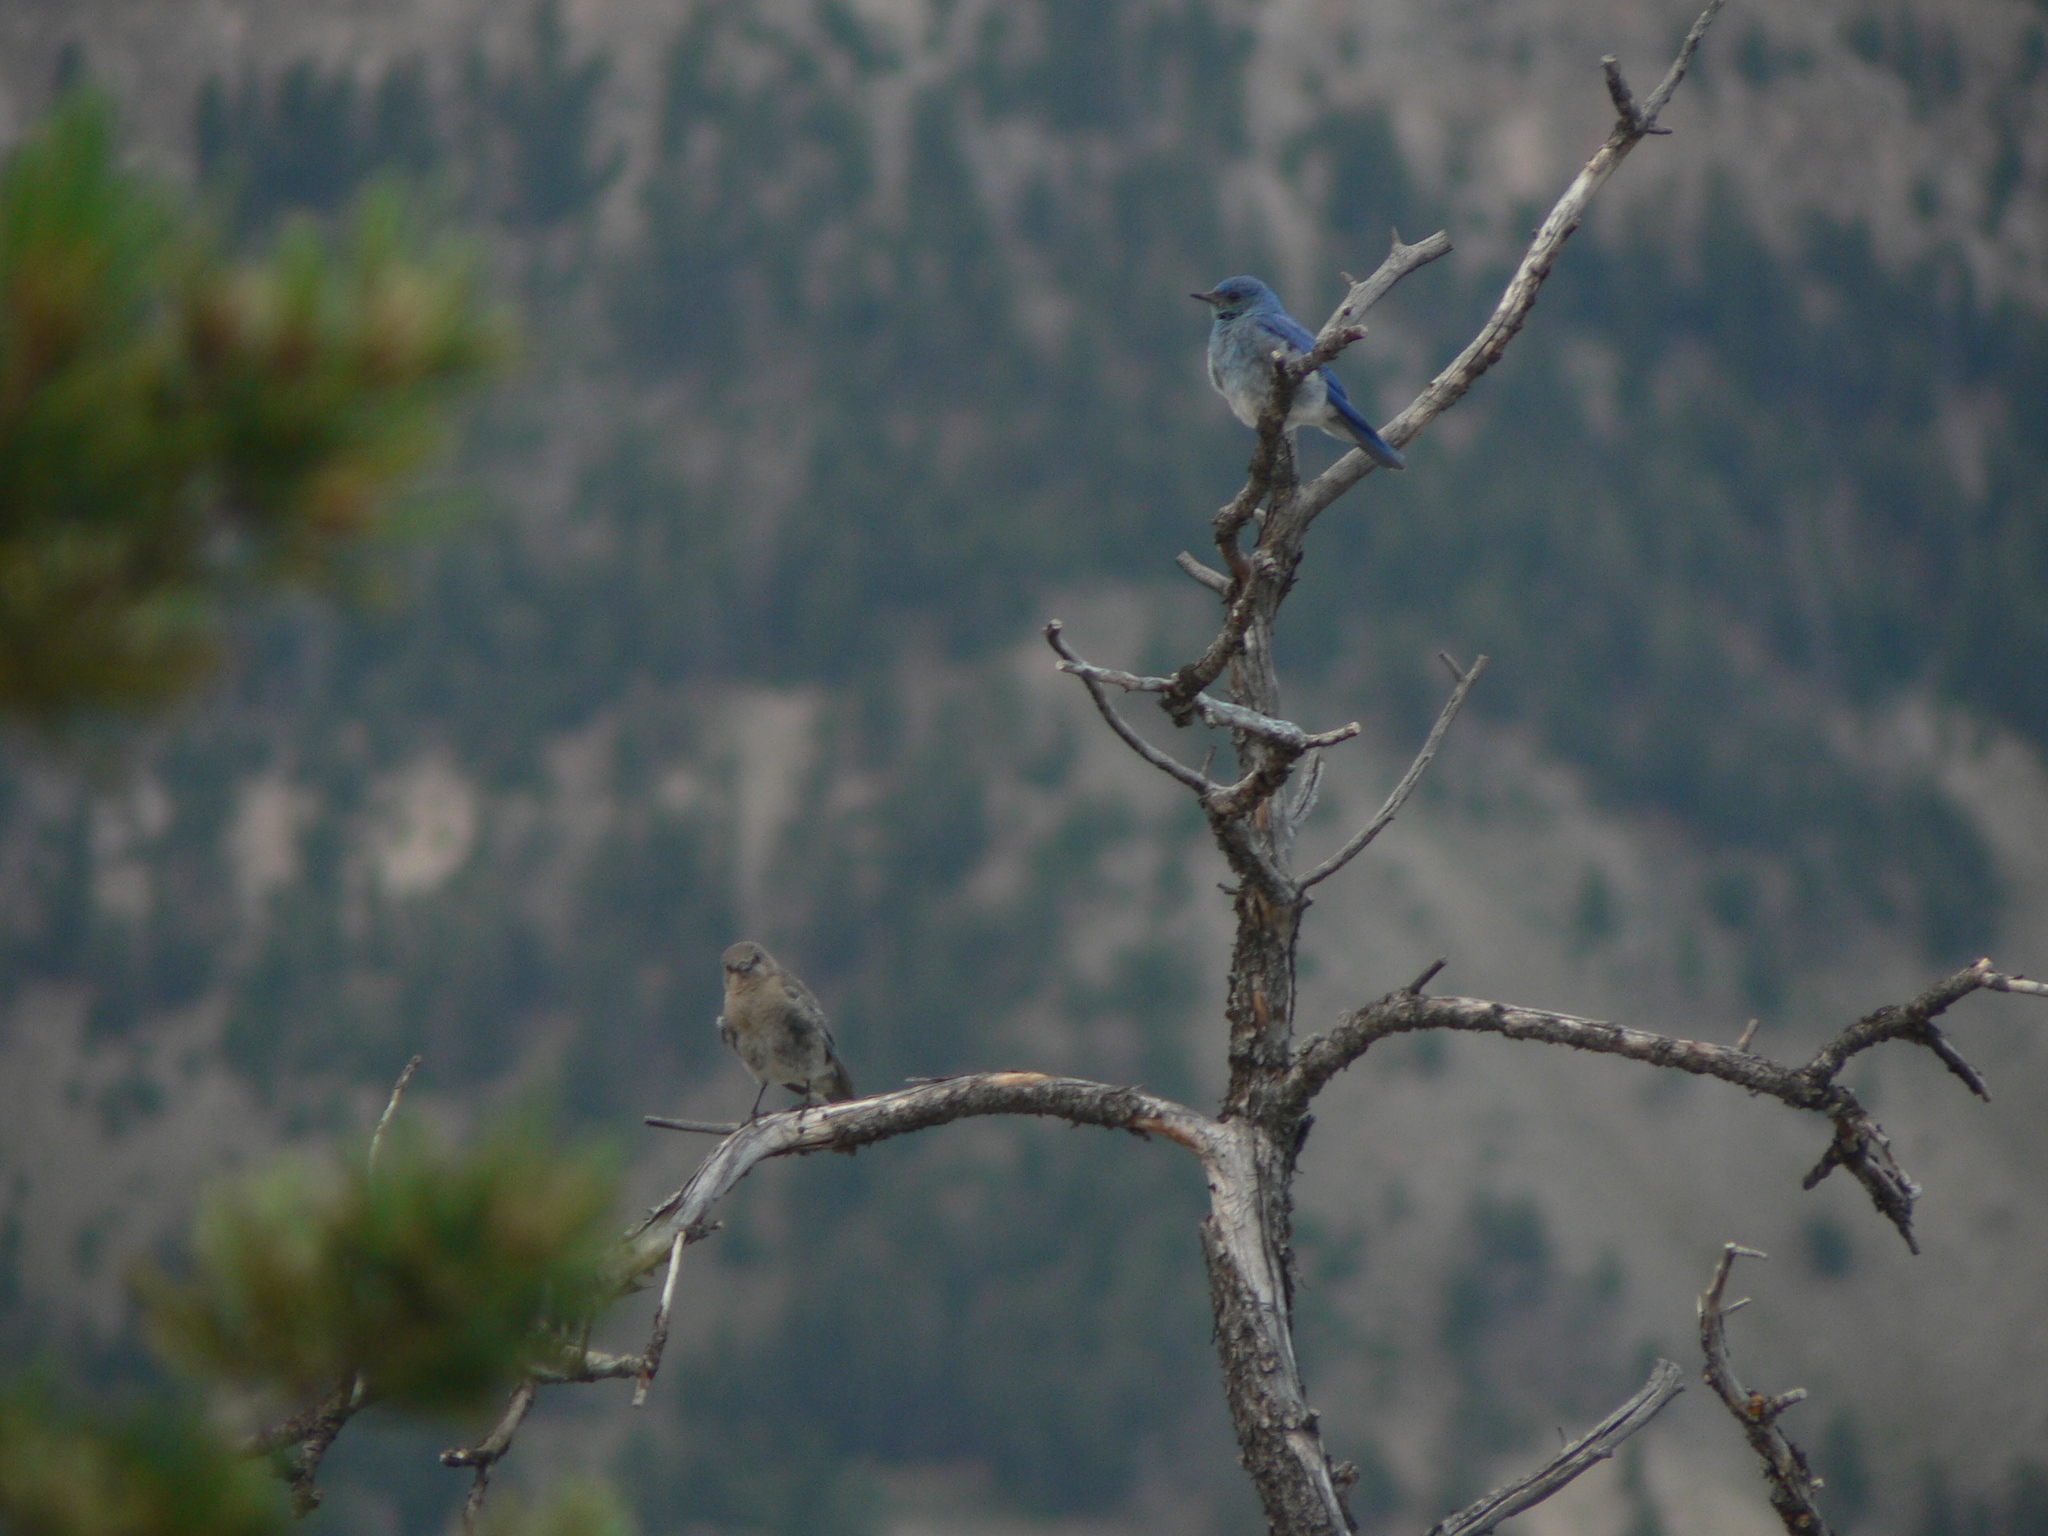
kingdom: Animalia
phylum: Chordata
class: Aves
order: Passeriformes
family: Turdidae
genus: Sialia
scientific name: Sialia currucoides
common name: Mountain bluebird
